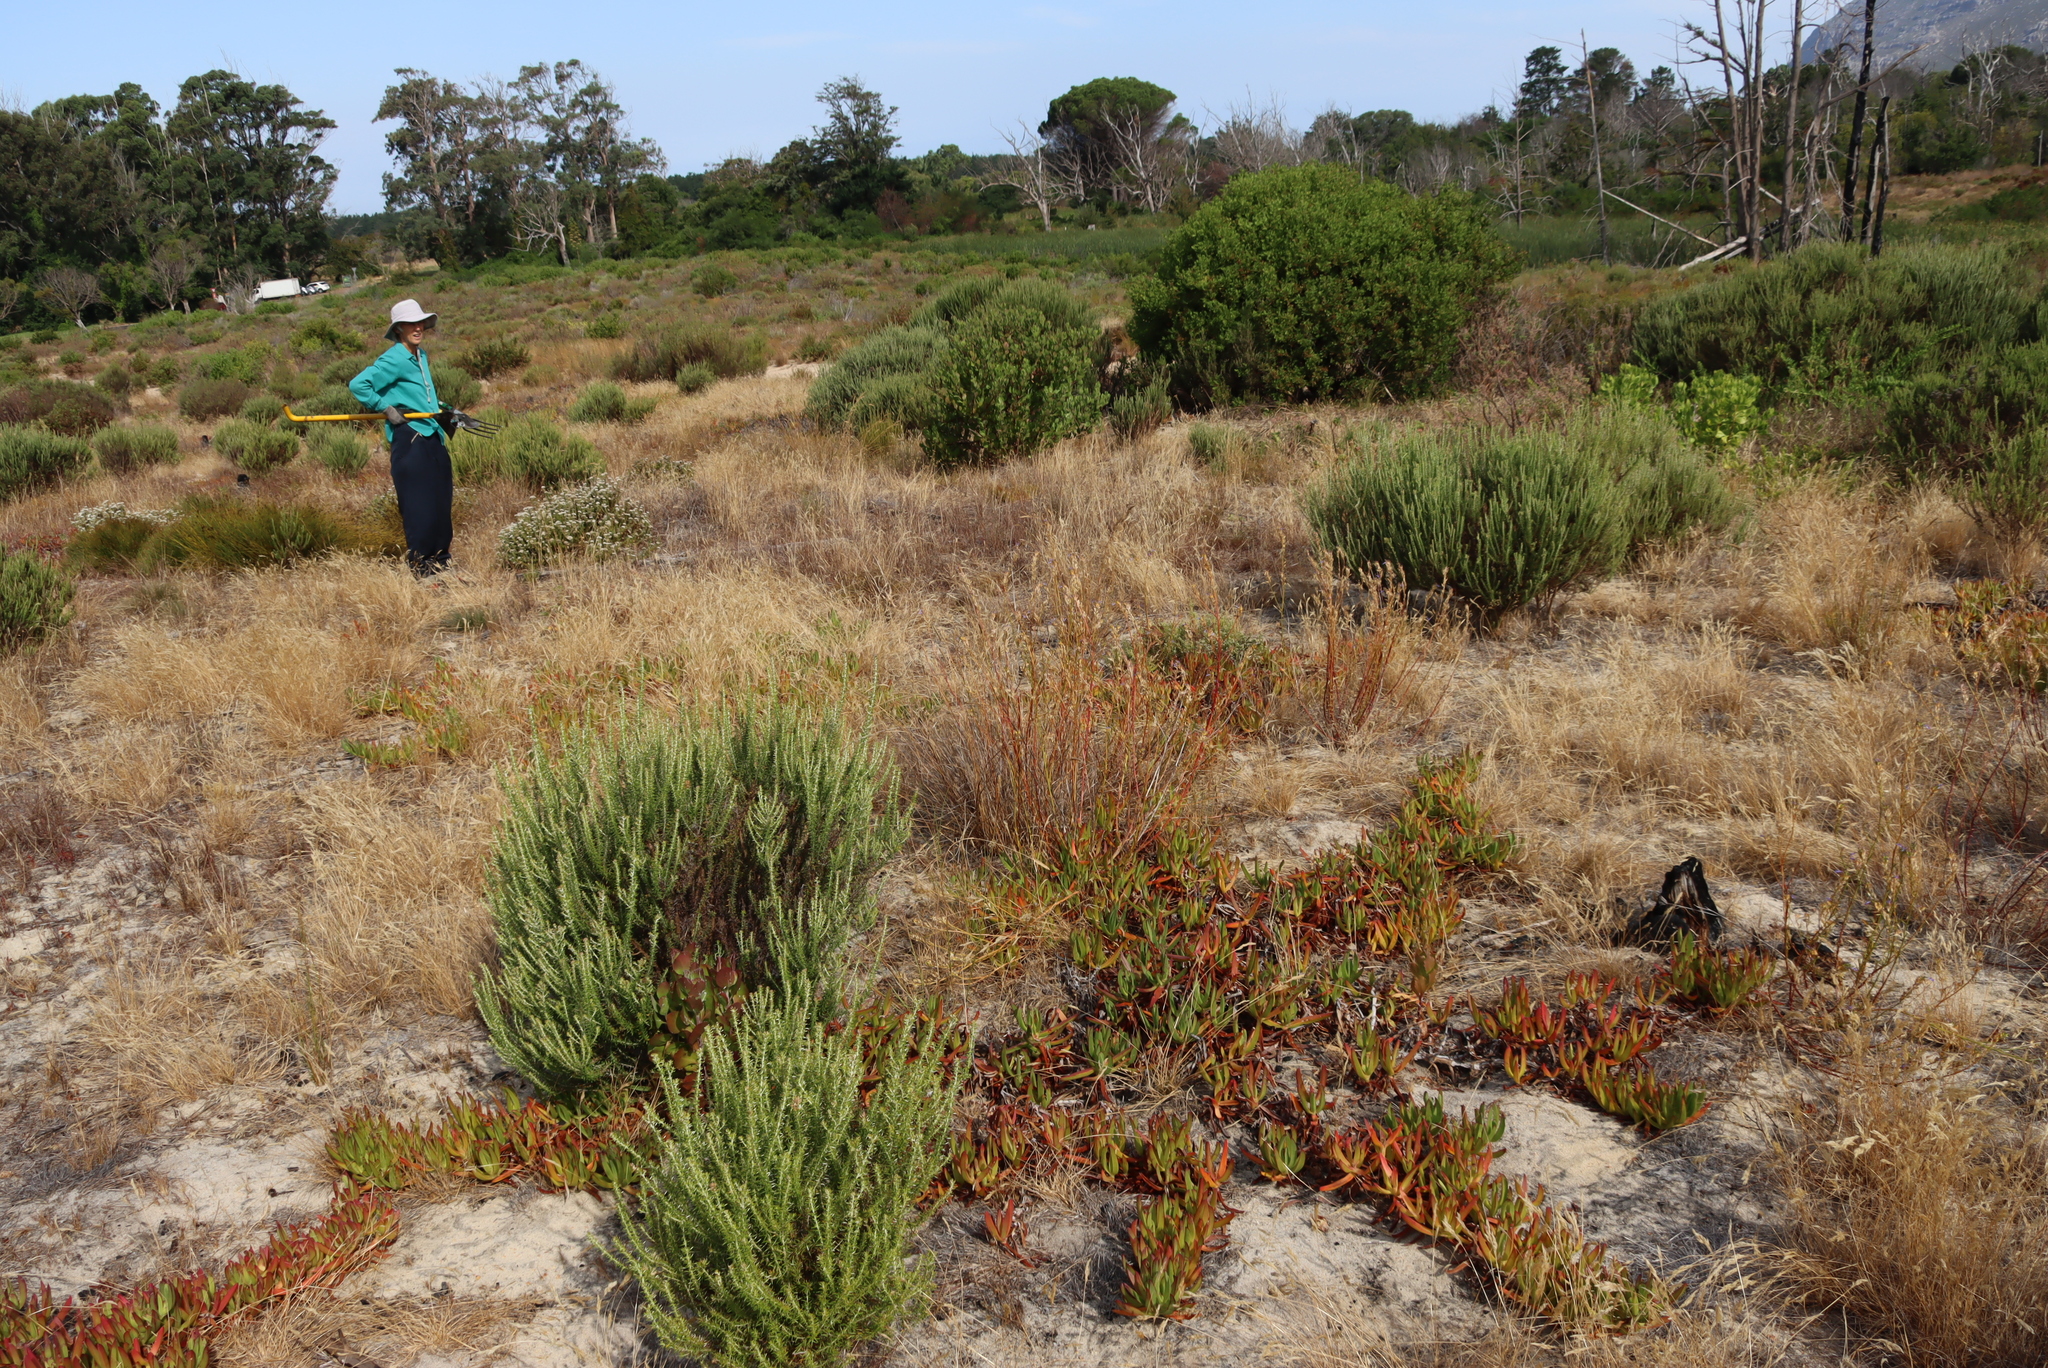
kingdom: Plantae
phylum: Tracheophyta
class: Magnoliopsida
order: Asterales
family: Campanulaceae
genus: Lobelia
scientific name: Lobelia comosa
